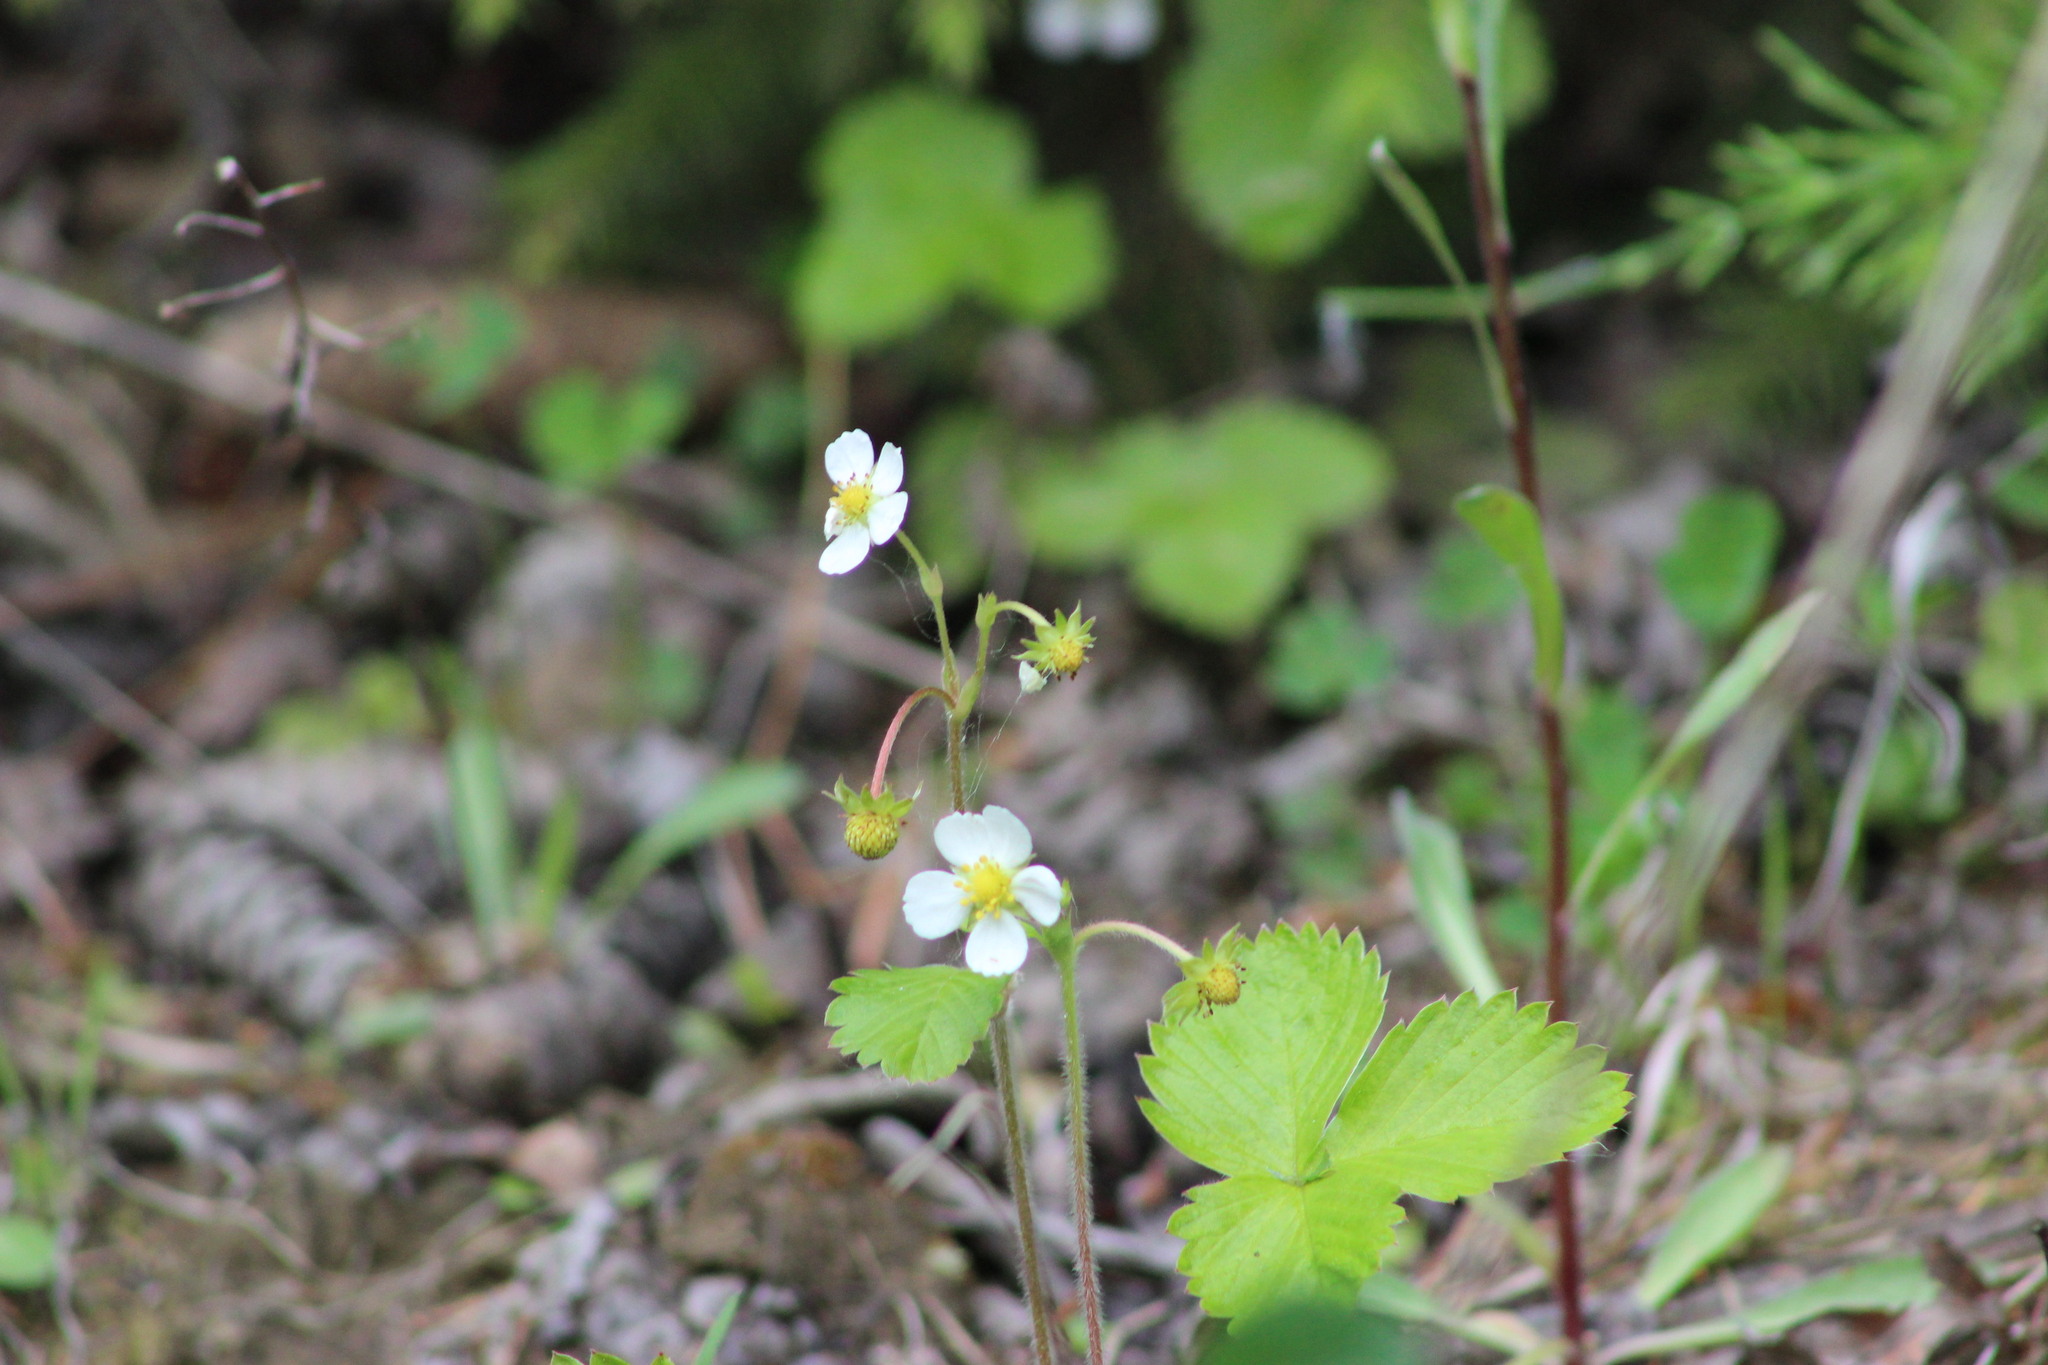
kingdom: Plantae
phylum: Tracheophyta
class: Magnoliopsida
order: Rosales
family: Rosaceae
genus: Fragaria
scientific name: Fragaria vesca
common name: Wild strawberry
